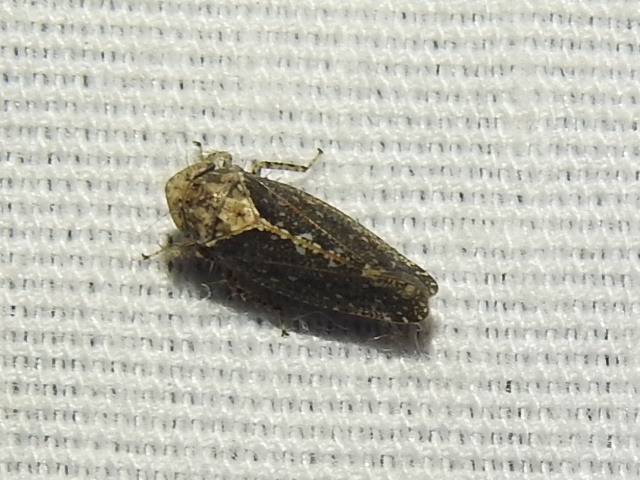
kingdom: Animalia
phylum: Arthropoda
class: Insecta
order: Hemiptera
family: Cicadellidae
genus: Excultanus
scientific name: Excultanus excultus
